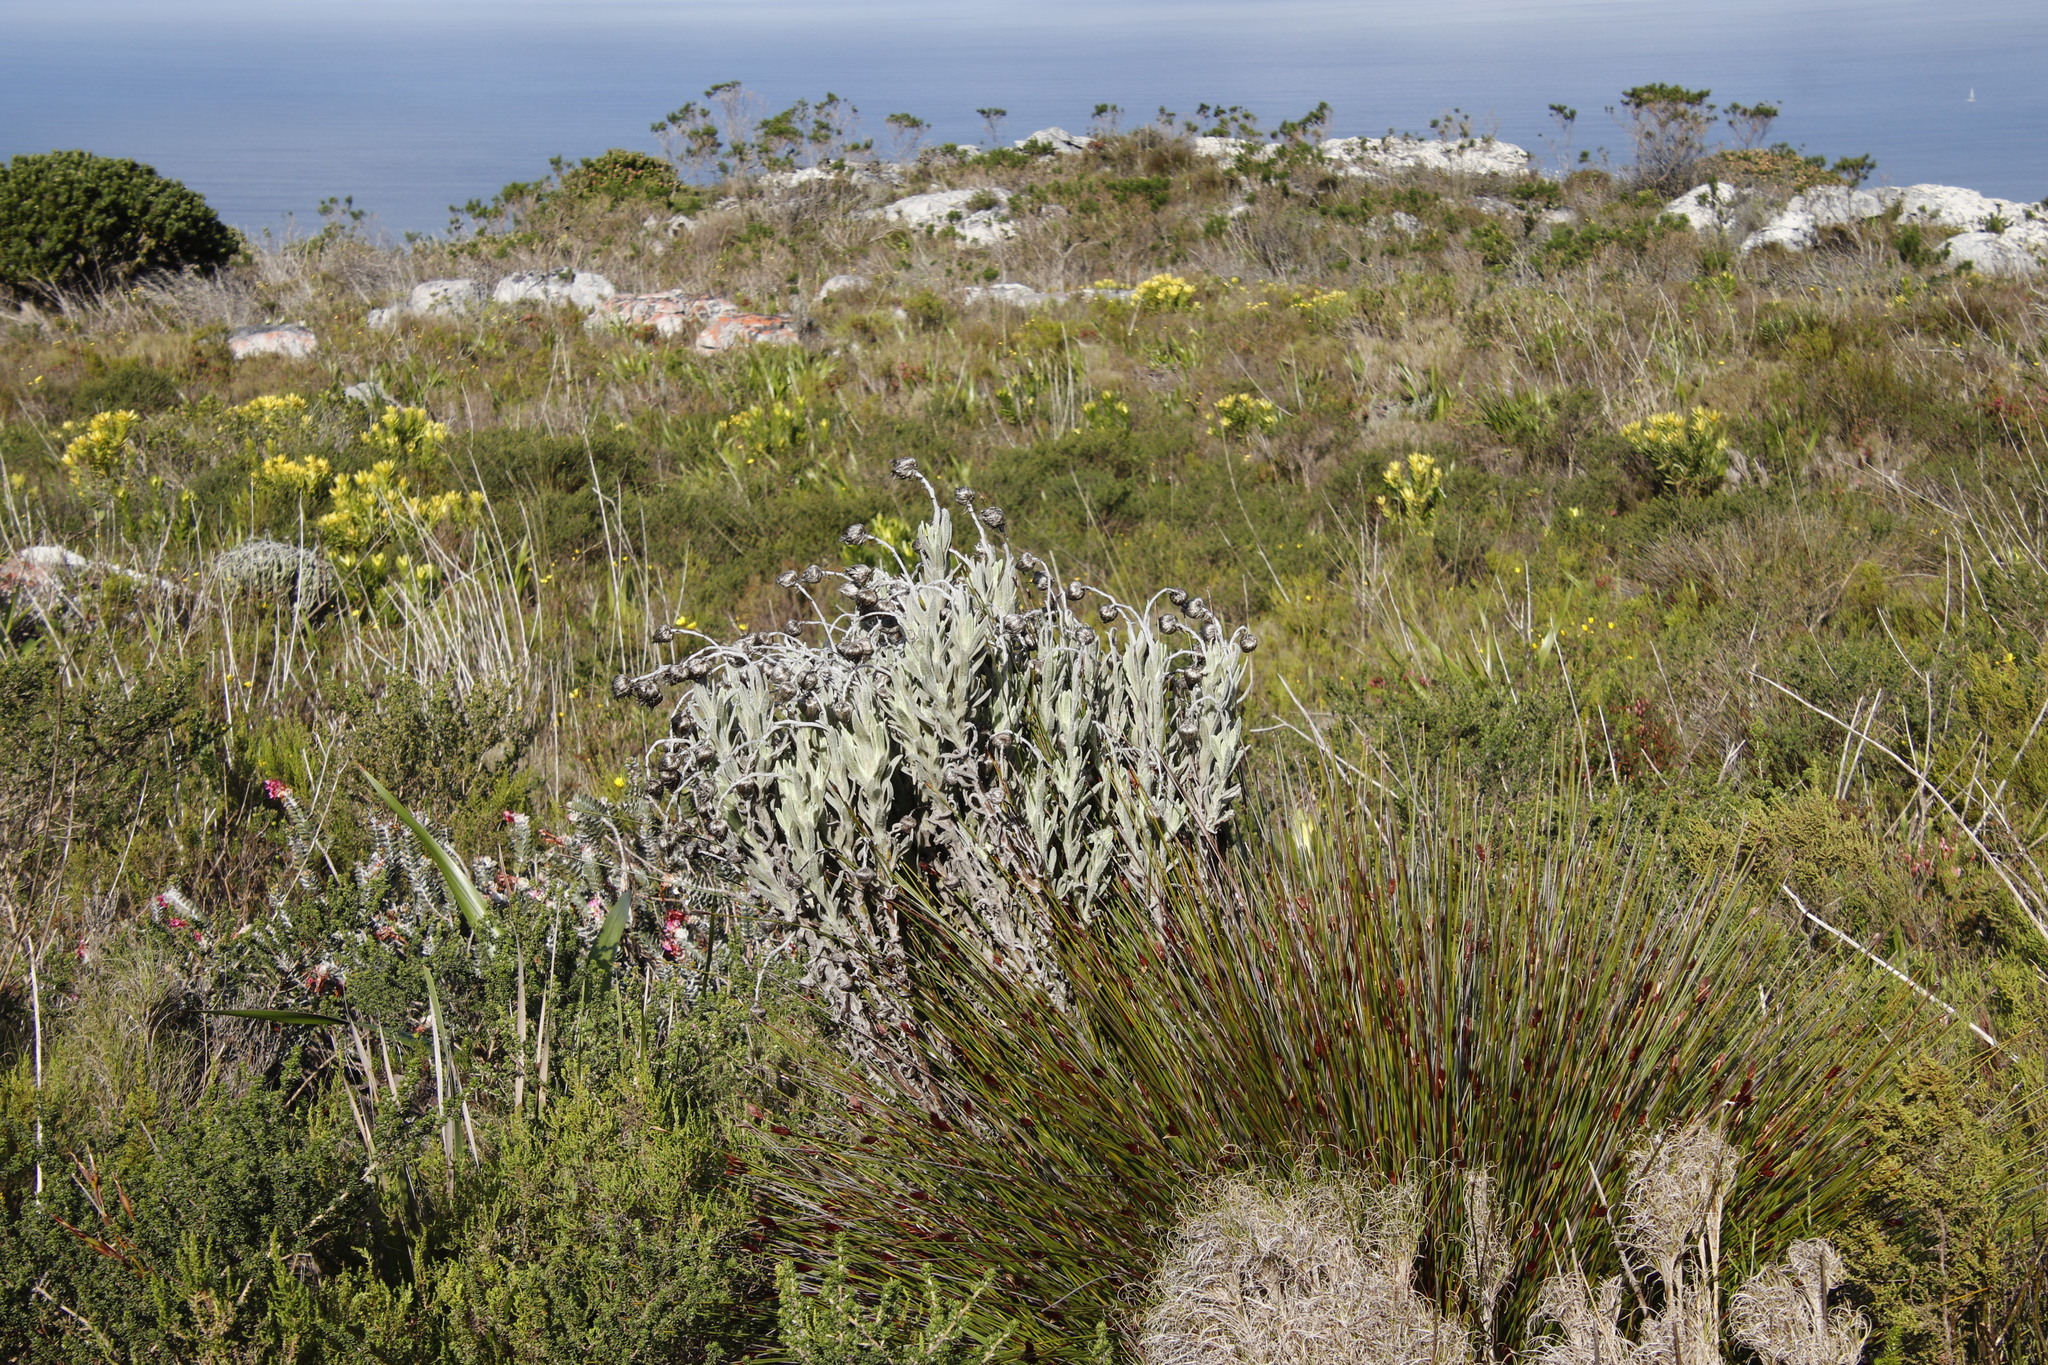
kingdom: Plantae
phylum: Tracheophyta
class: Magnoliopsida
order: Asterales
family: Asteraceae
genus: Syncarpha
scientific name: Syncarpha vestita
